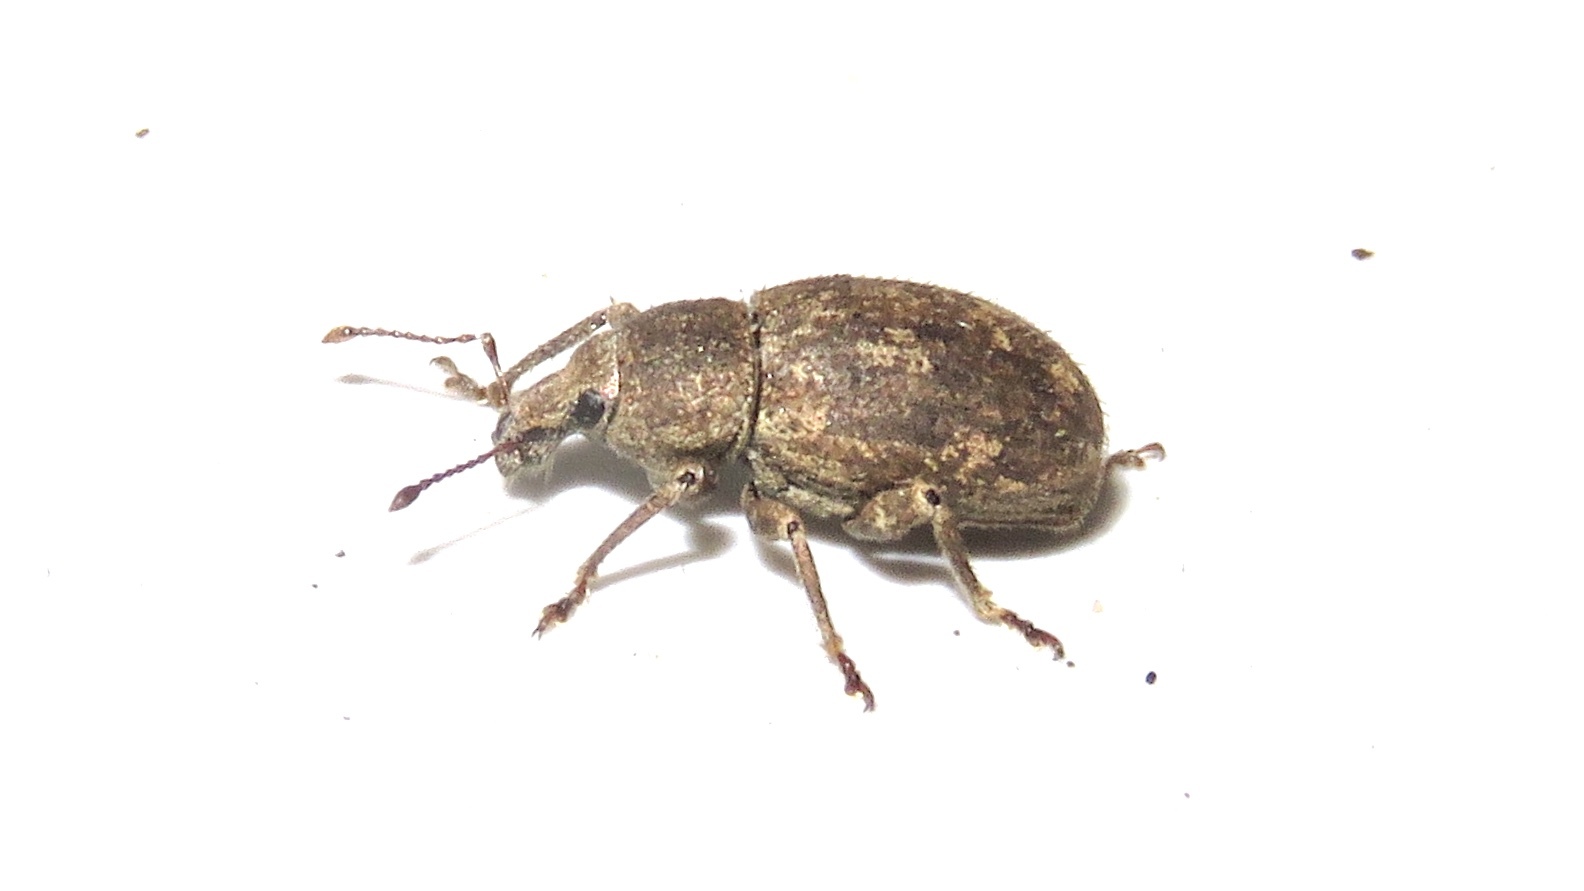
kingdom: Animalia
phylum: Arthropoda
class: Insecta
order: Coleoptera
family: Curculionidae
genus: Anametis
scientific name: Anametis granulata
